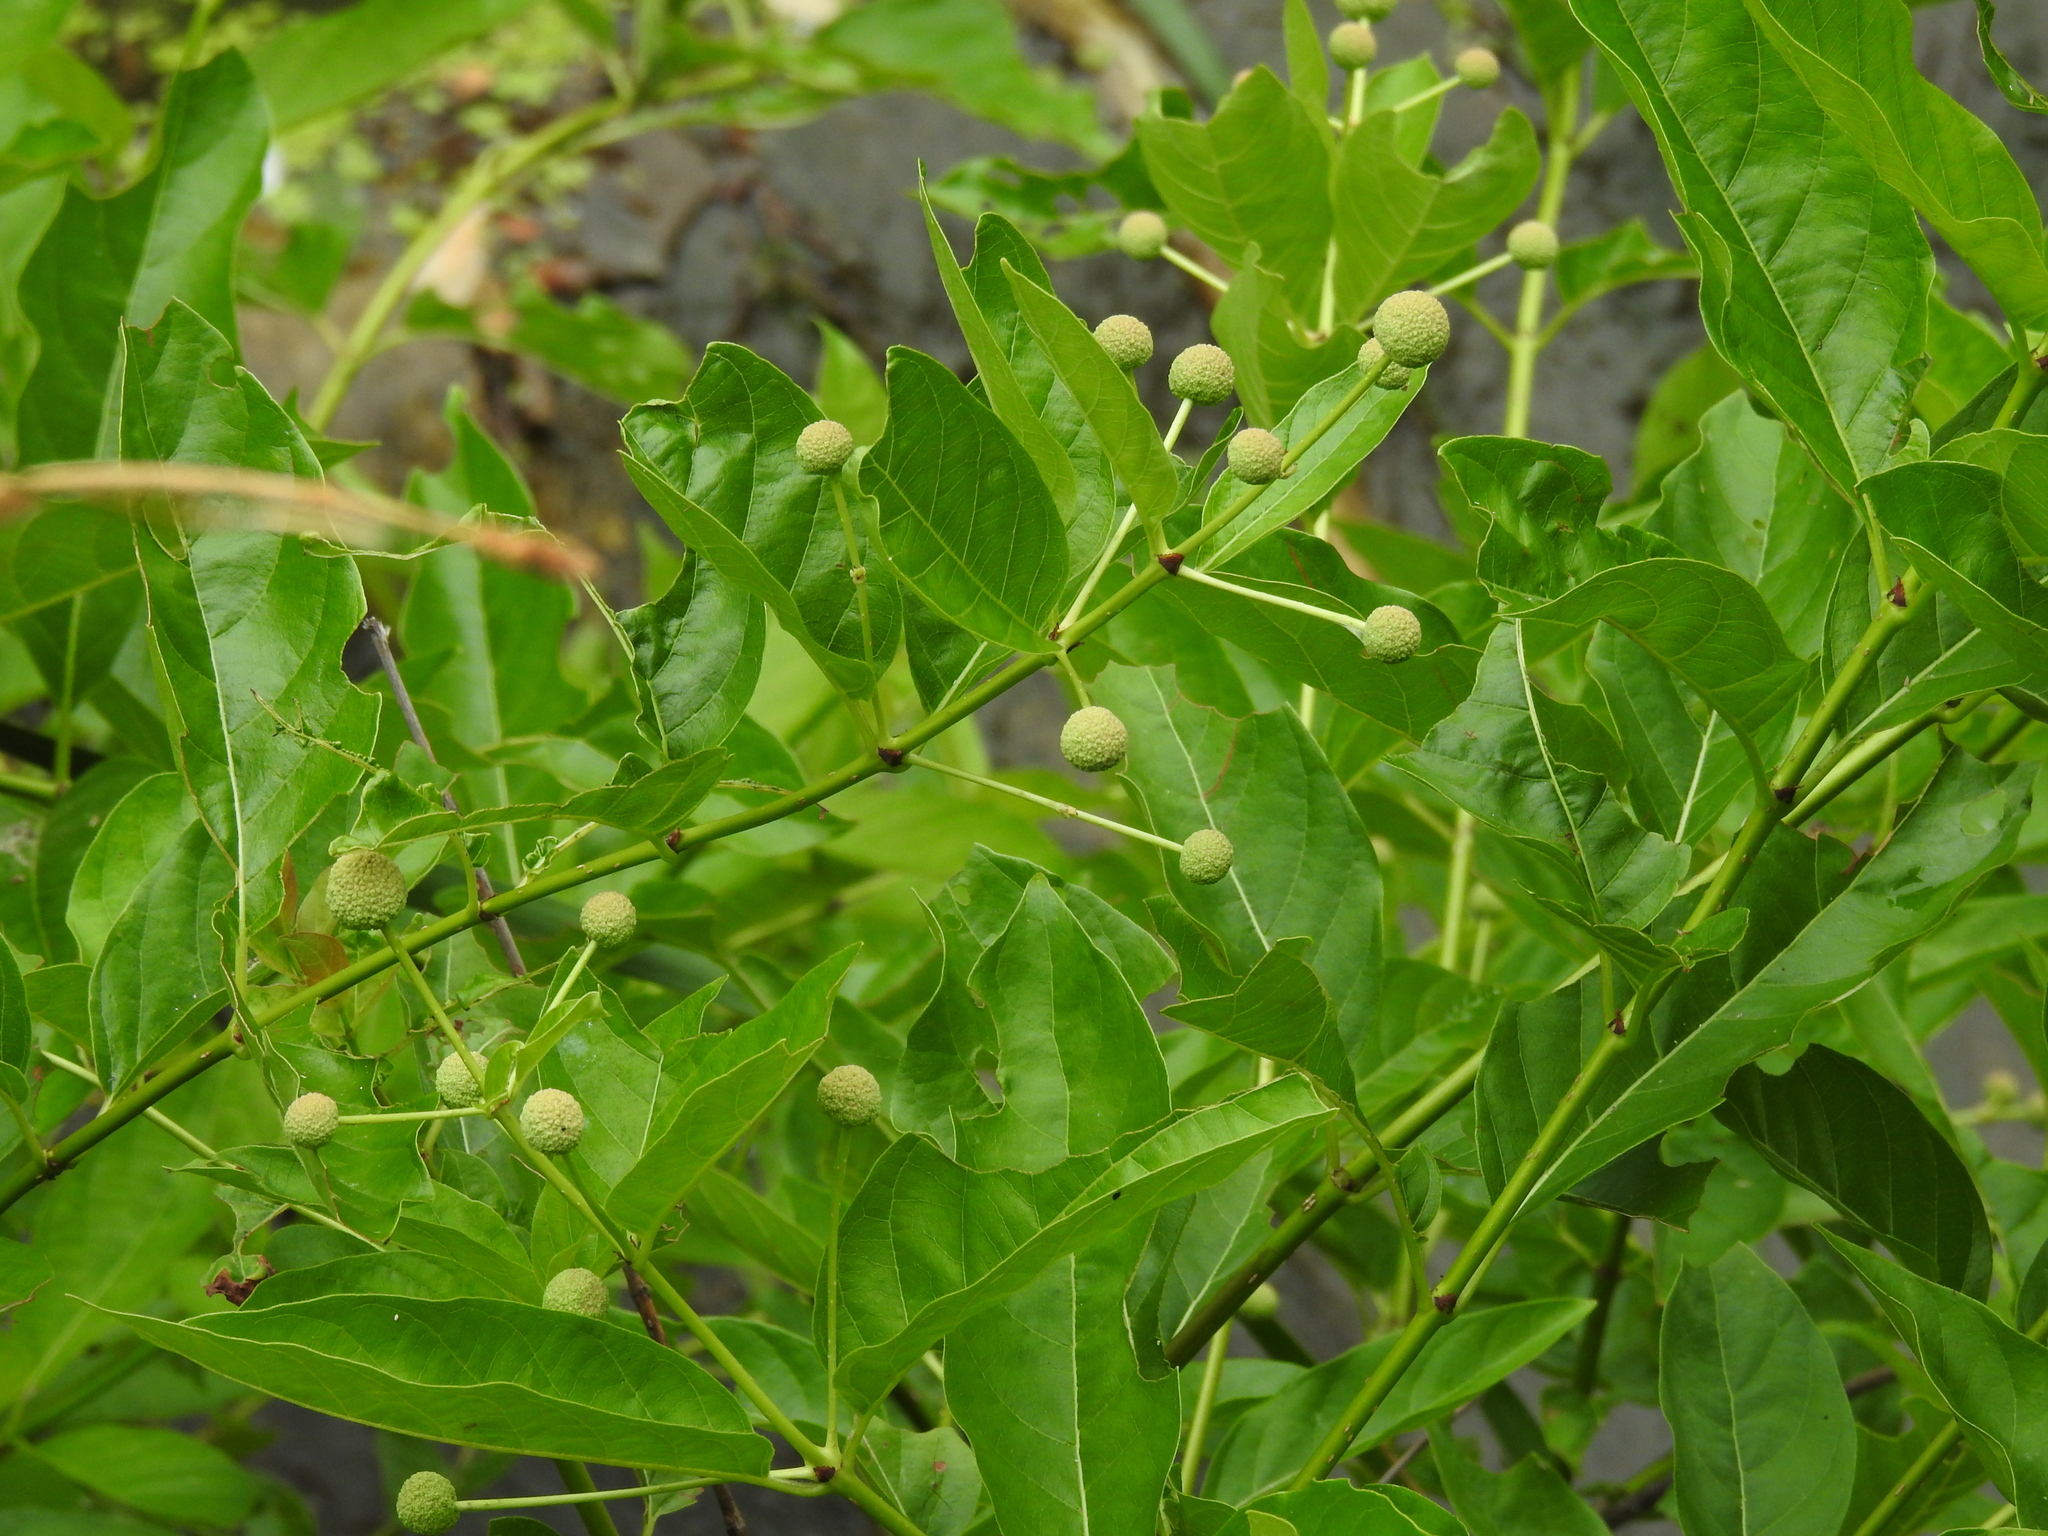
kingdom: Plantae
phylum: Tracheophyta
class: Magnoliopsida
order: Gentianales
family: Rubiaceae
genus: Cephalanthus
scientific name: Cephalanthus occidentalis
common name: Button-willow
